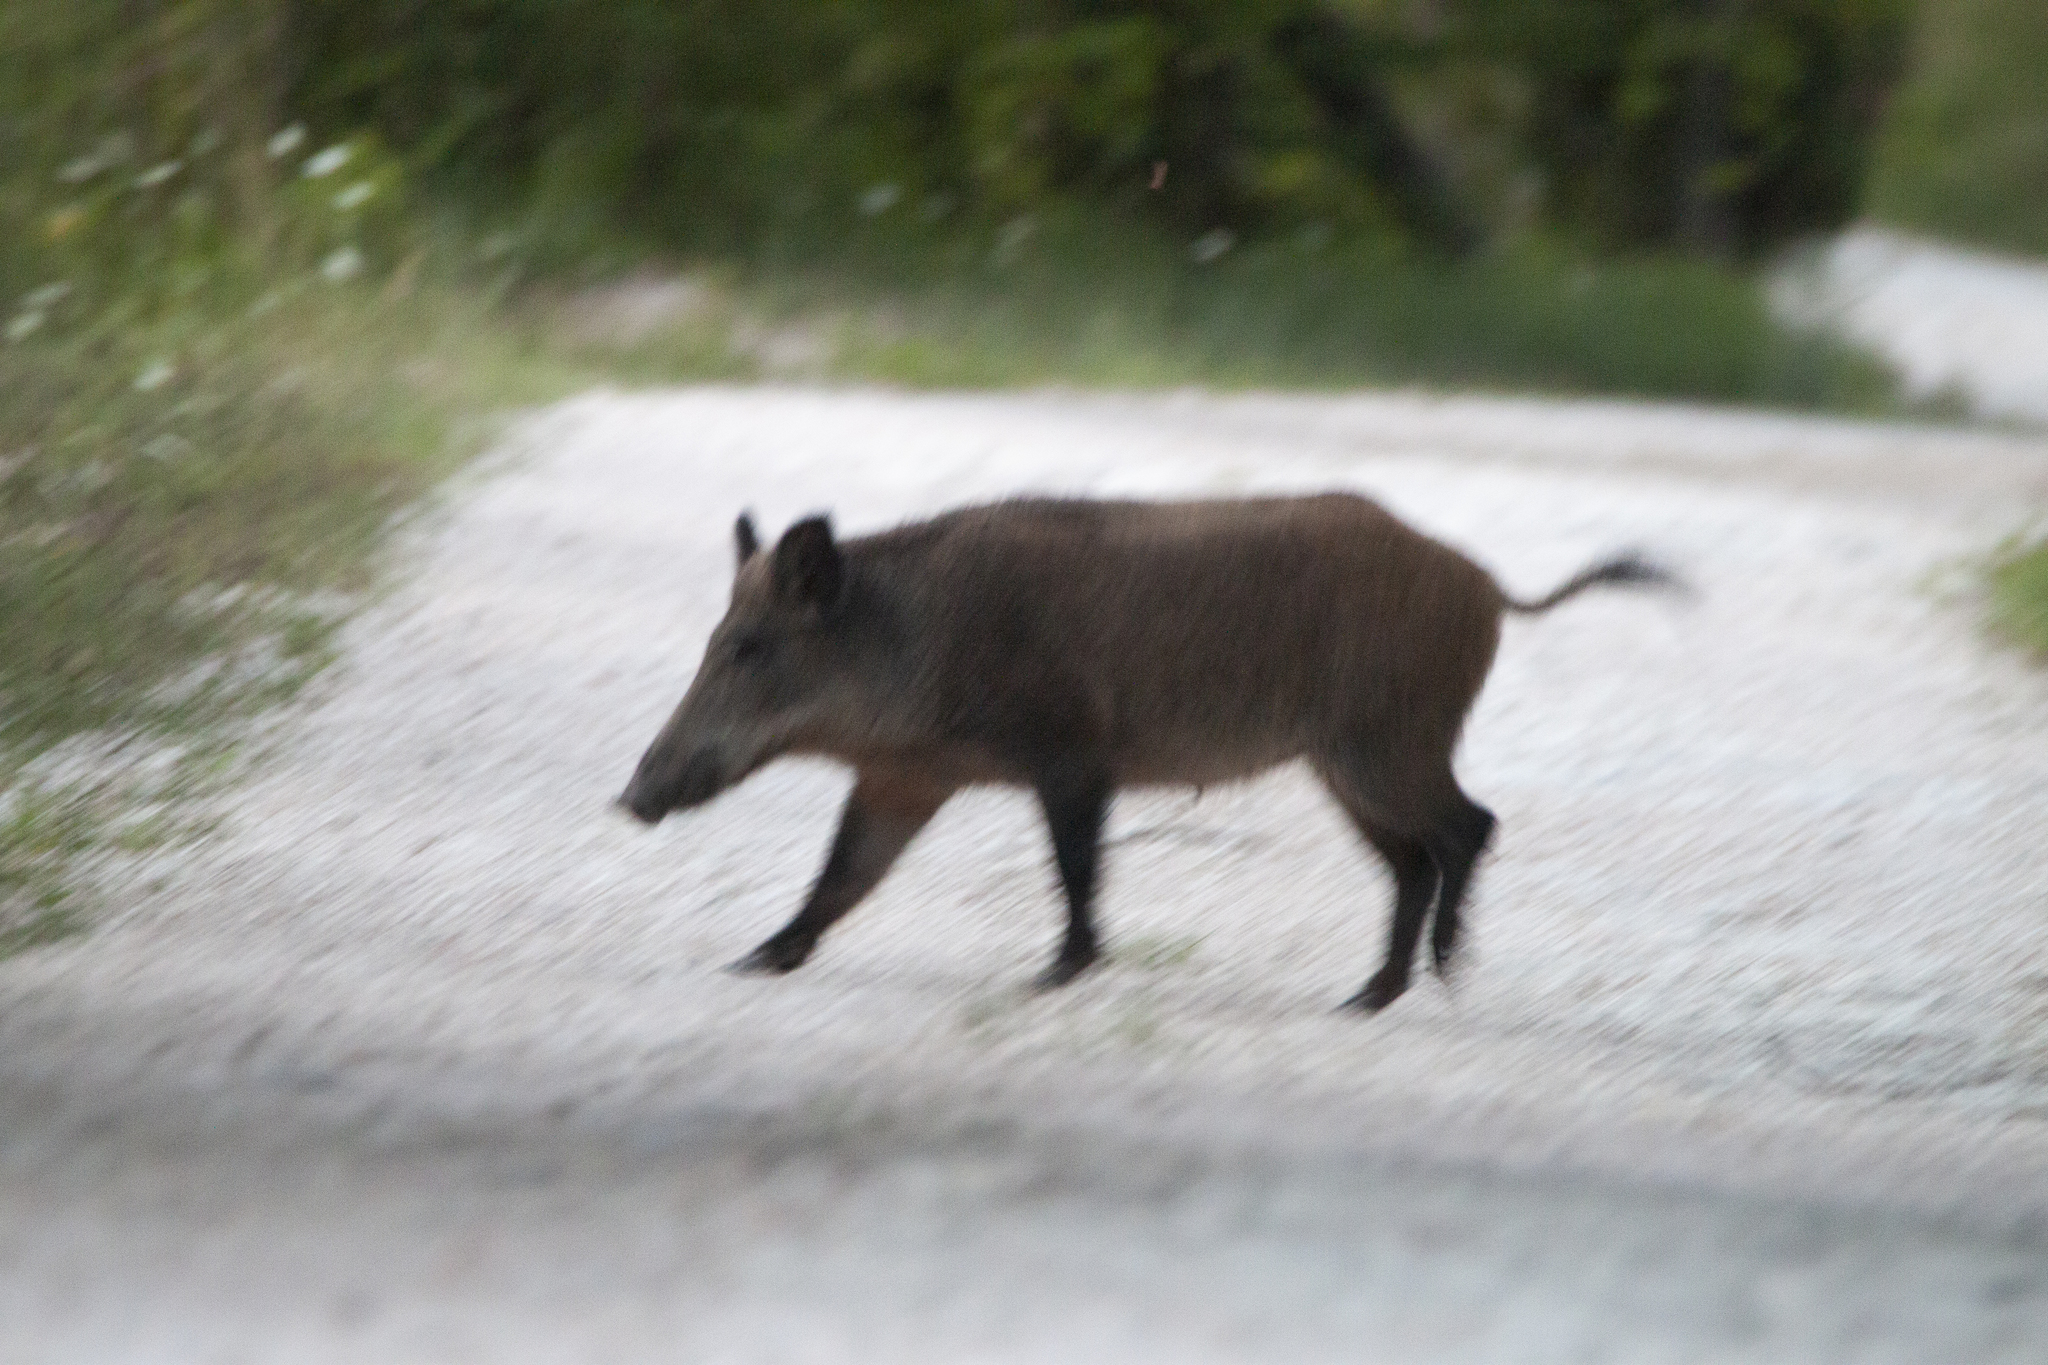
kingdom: Animalia
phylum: Chordata
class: Mammalia
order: Artiodactyla
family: Suidae
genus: Sus
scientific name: Sus scrofa
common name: Wild boar
